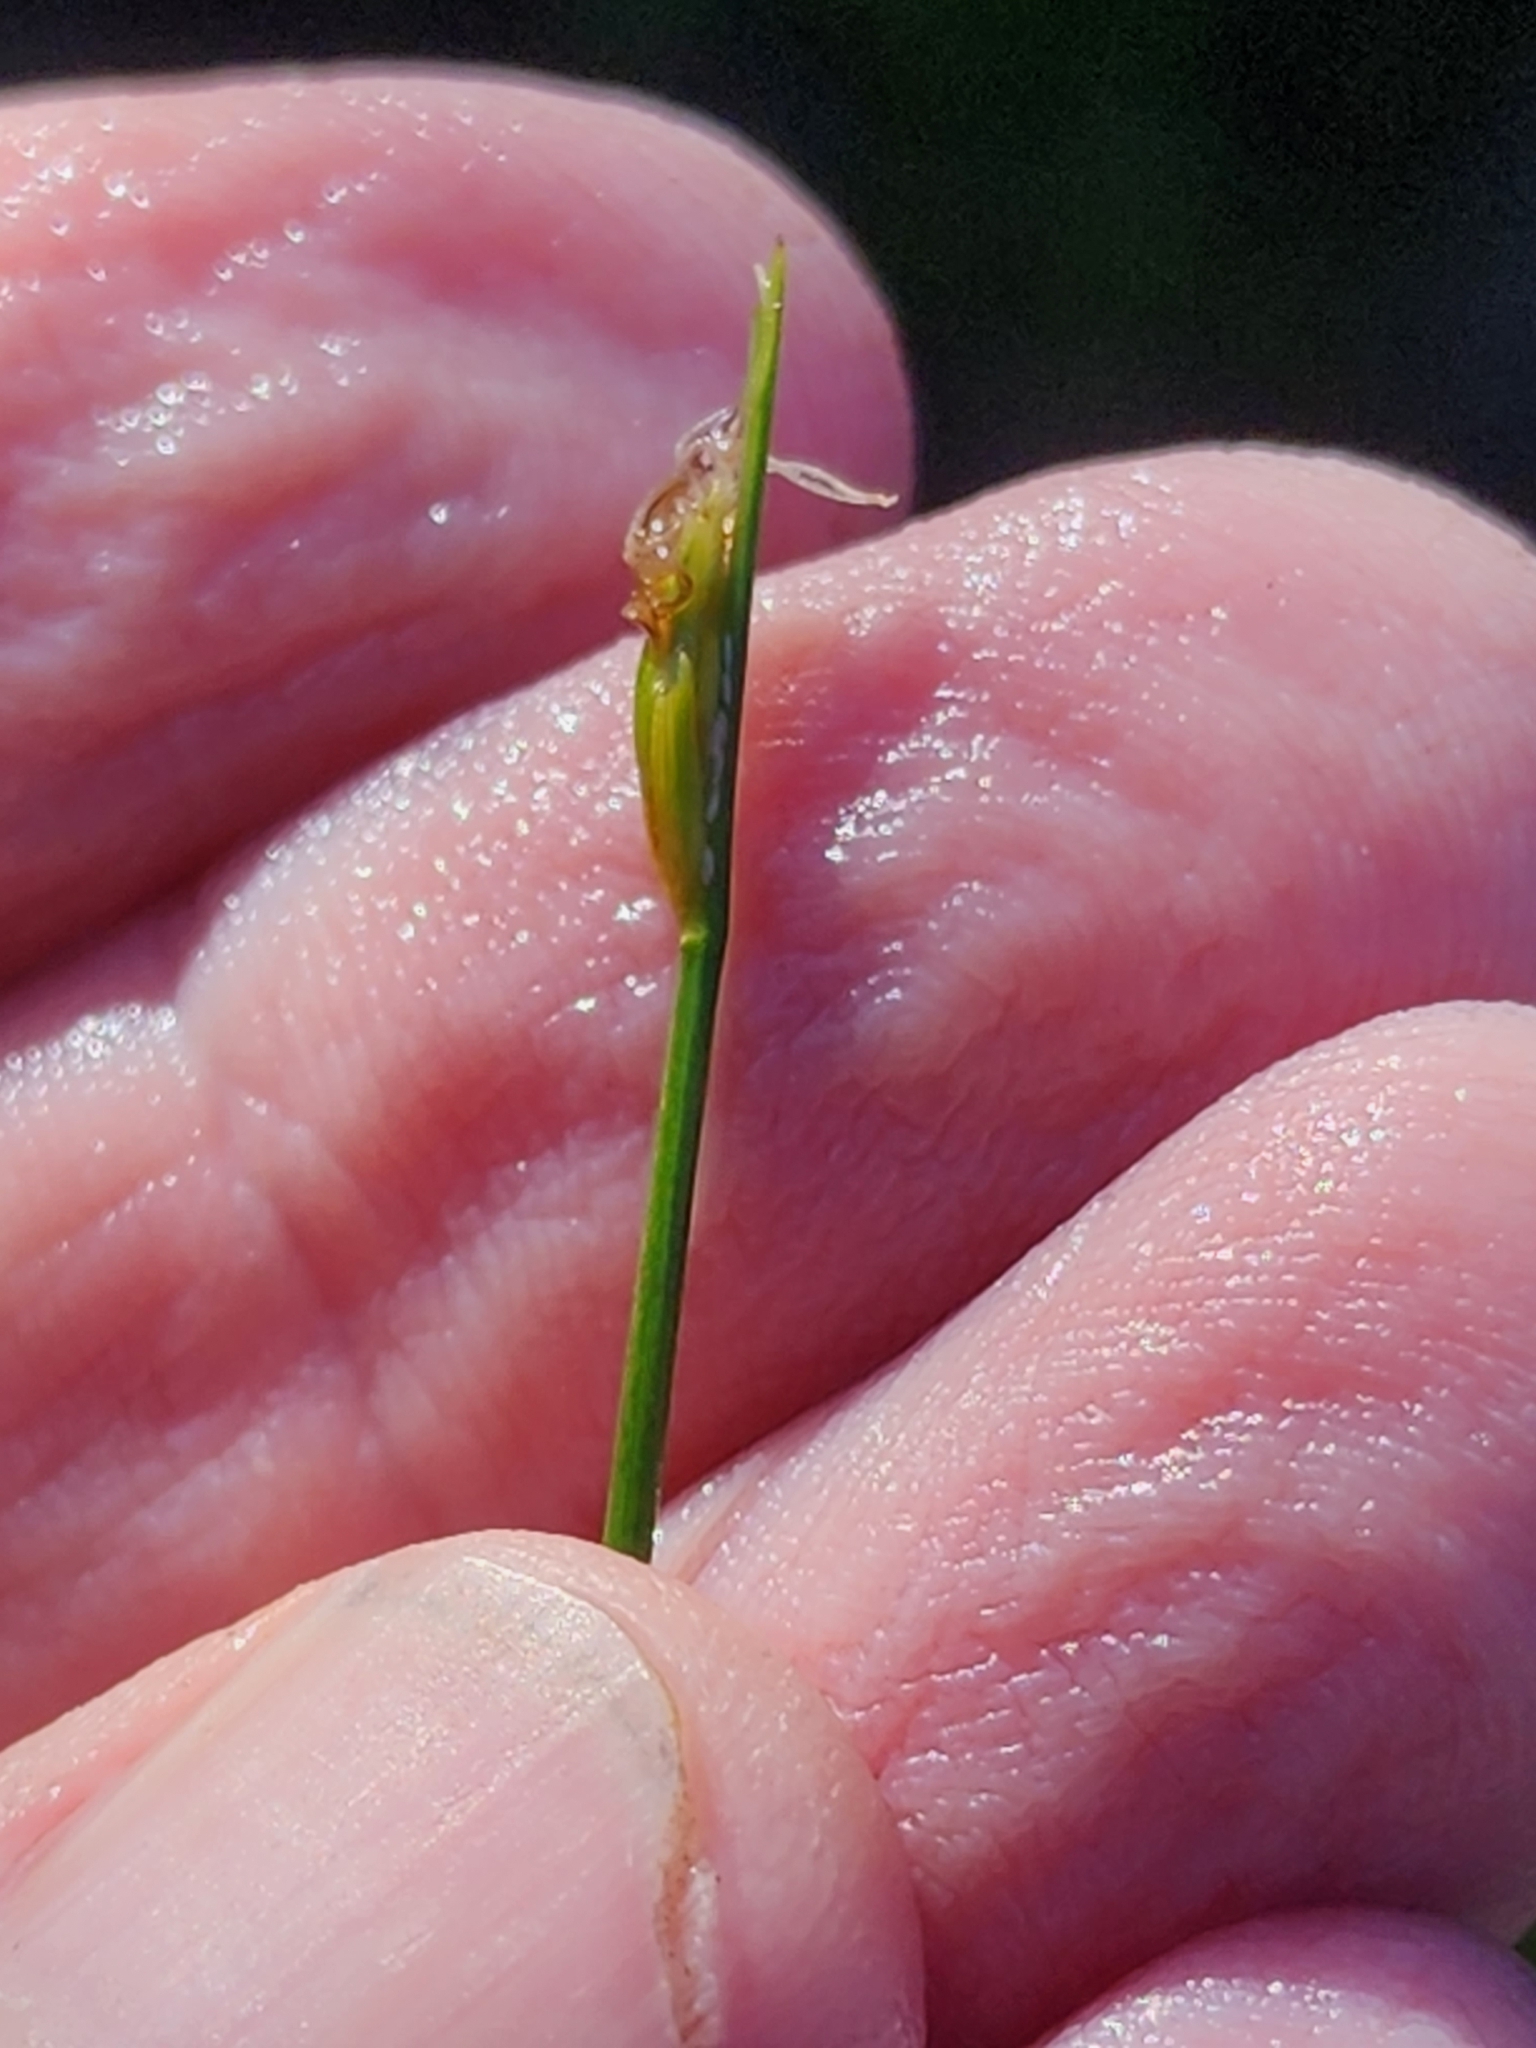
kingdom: Plantae
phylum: Tracheophyta
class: Liliopsida
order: Poales
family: Cyperaceae
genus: Schoenoplectus
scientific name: Schoenoplectus subterminalis
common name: Swaying bulrush
